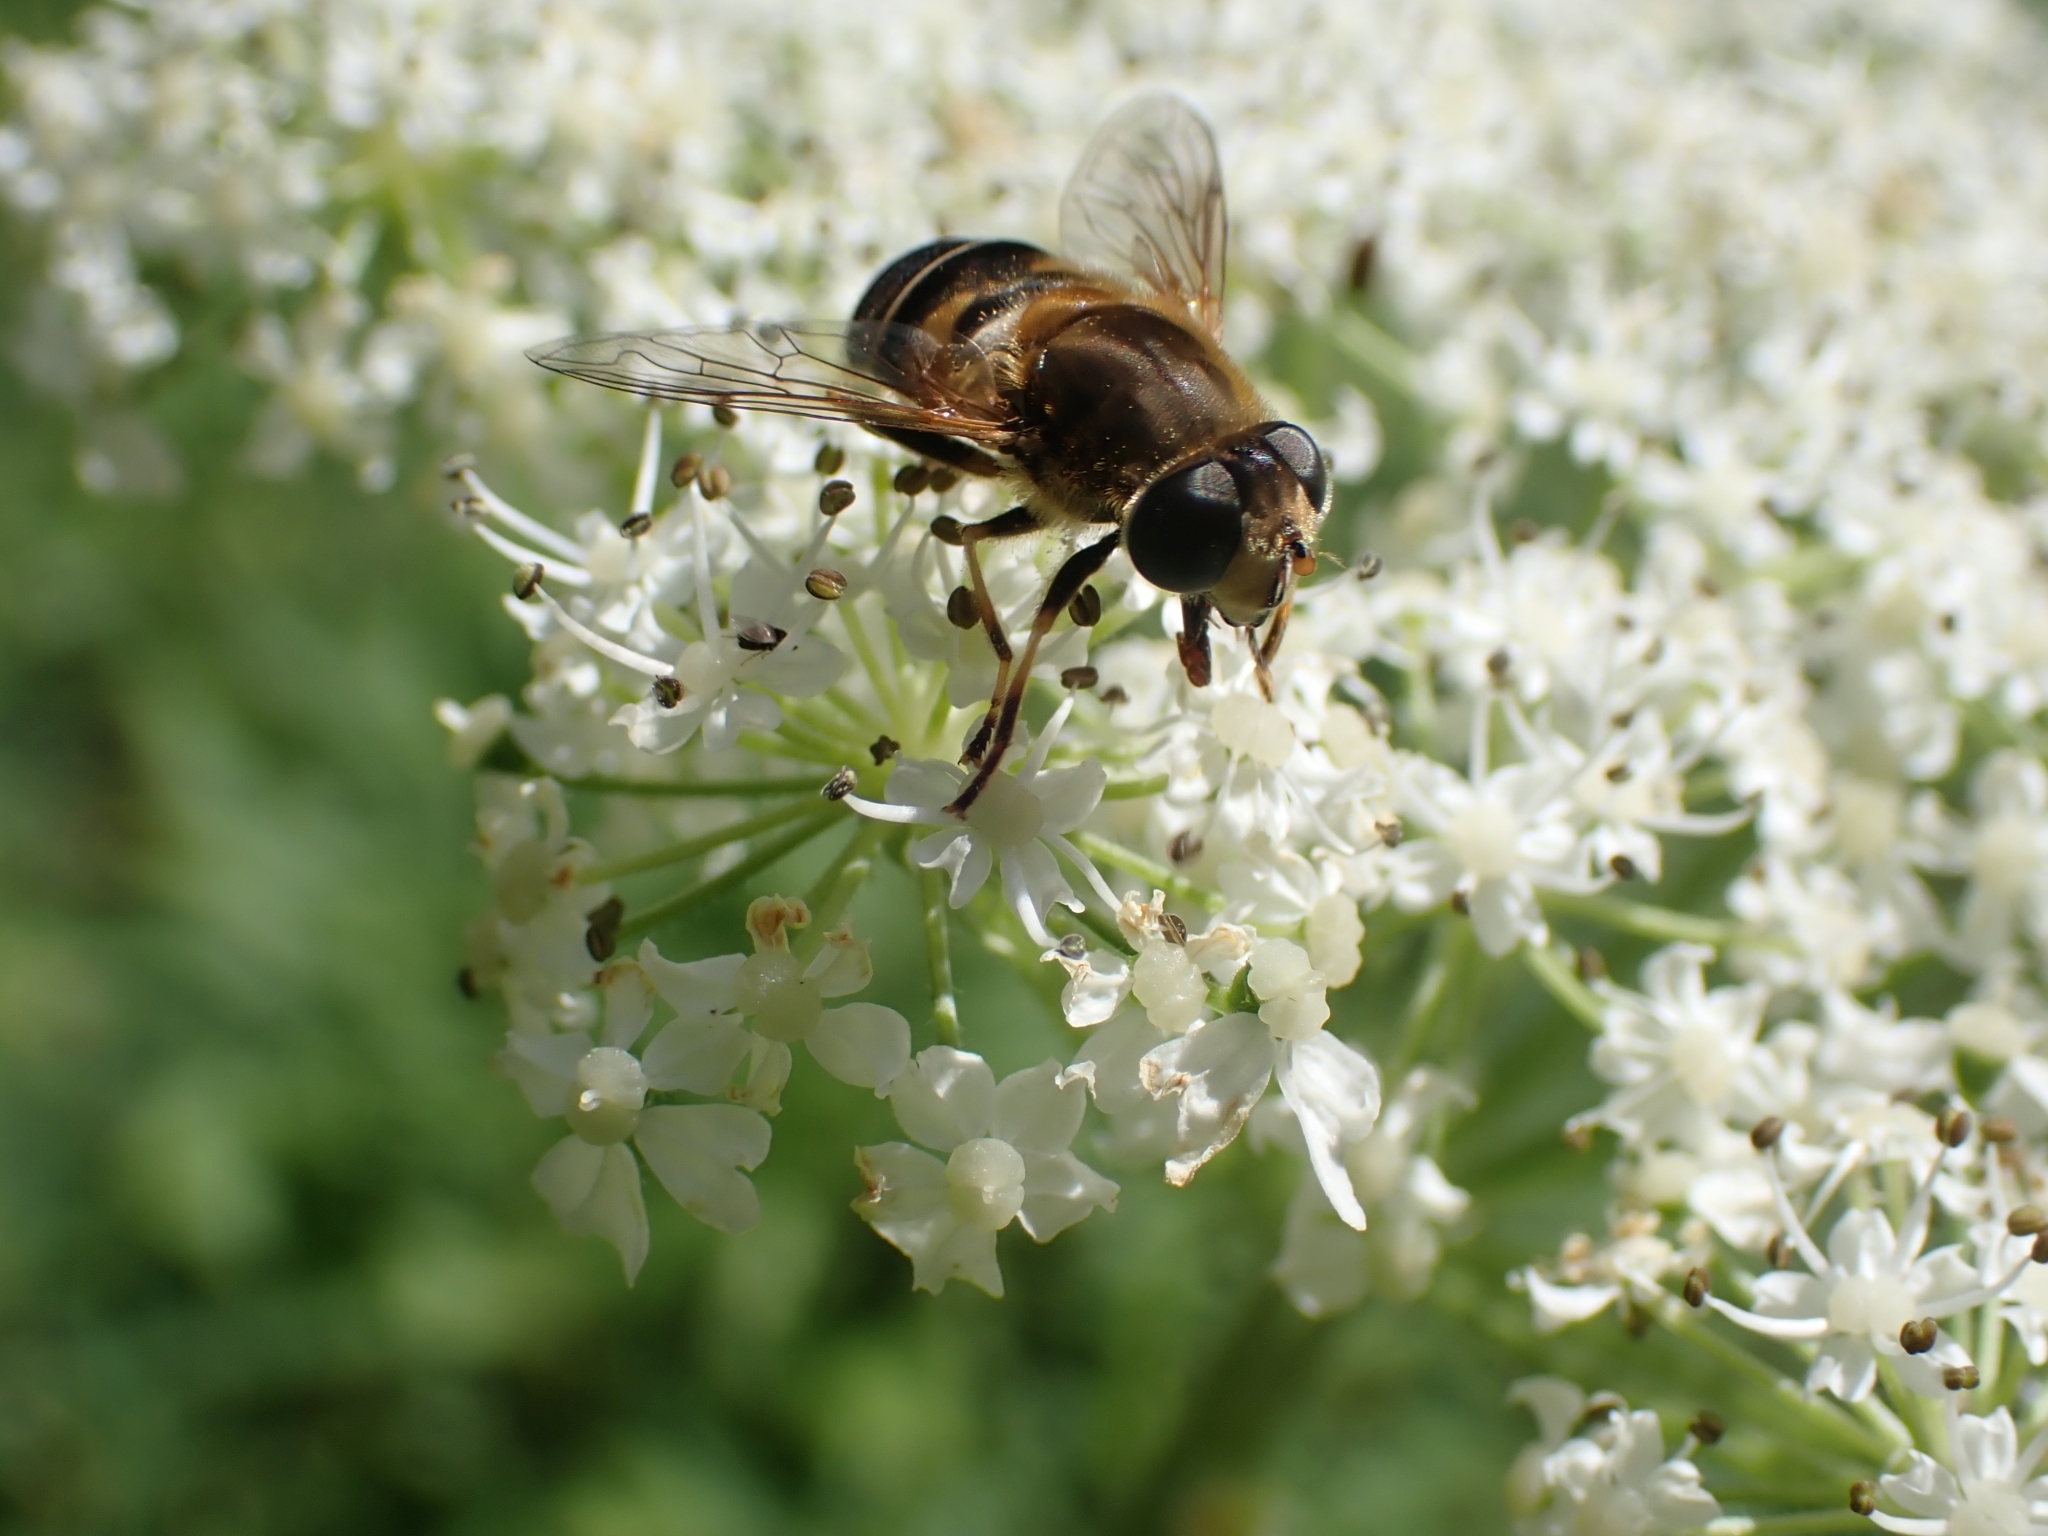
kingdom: Animalia
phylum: Arthropoda
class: Insecta
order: Diptera
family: Syrphidae
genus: Eristalis
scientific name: Eristalis nemorum
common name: Orange-spined drone fly
